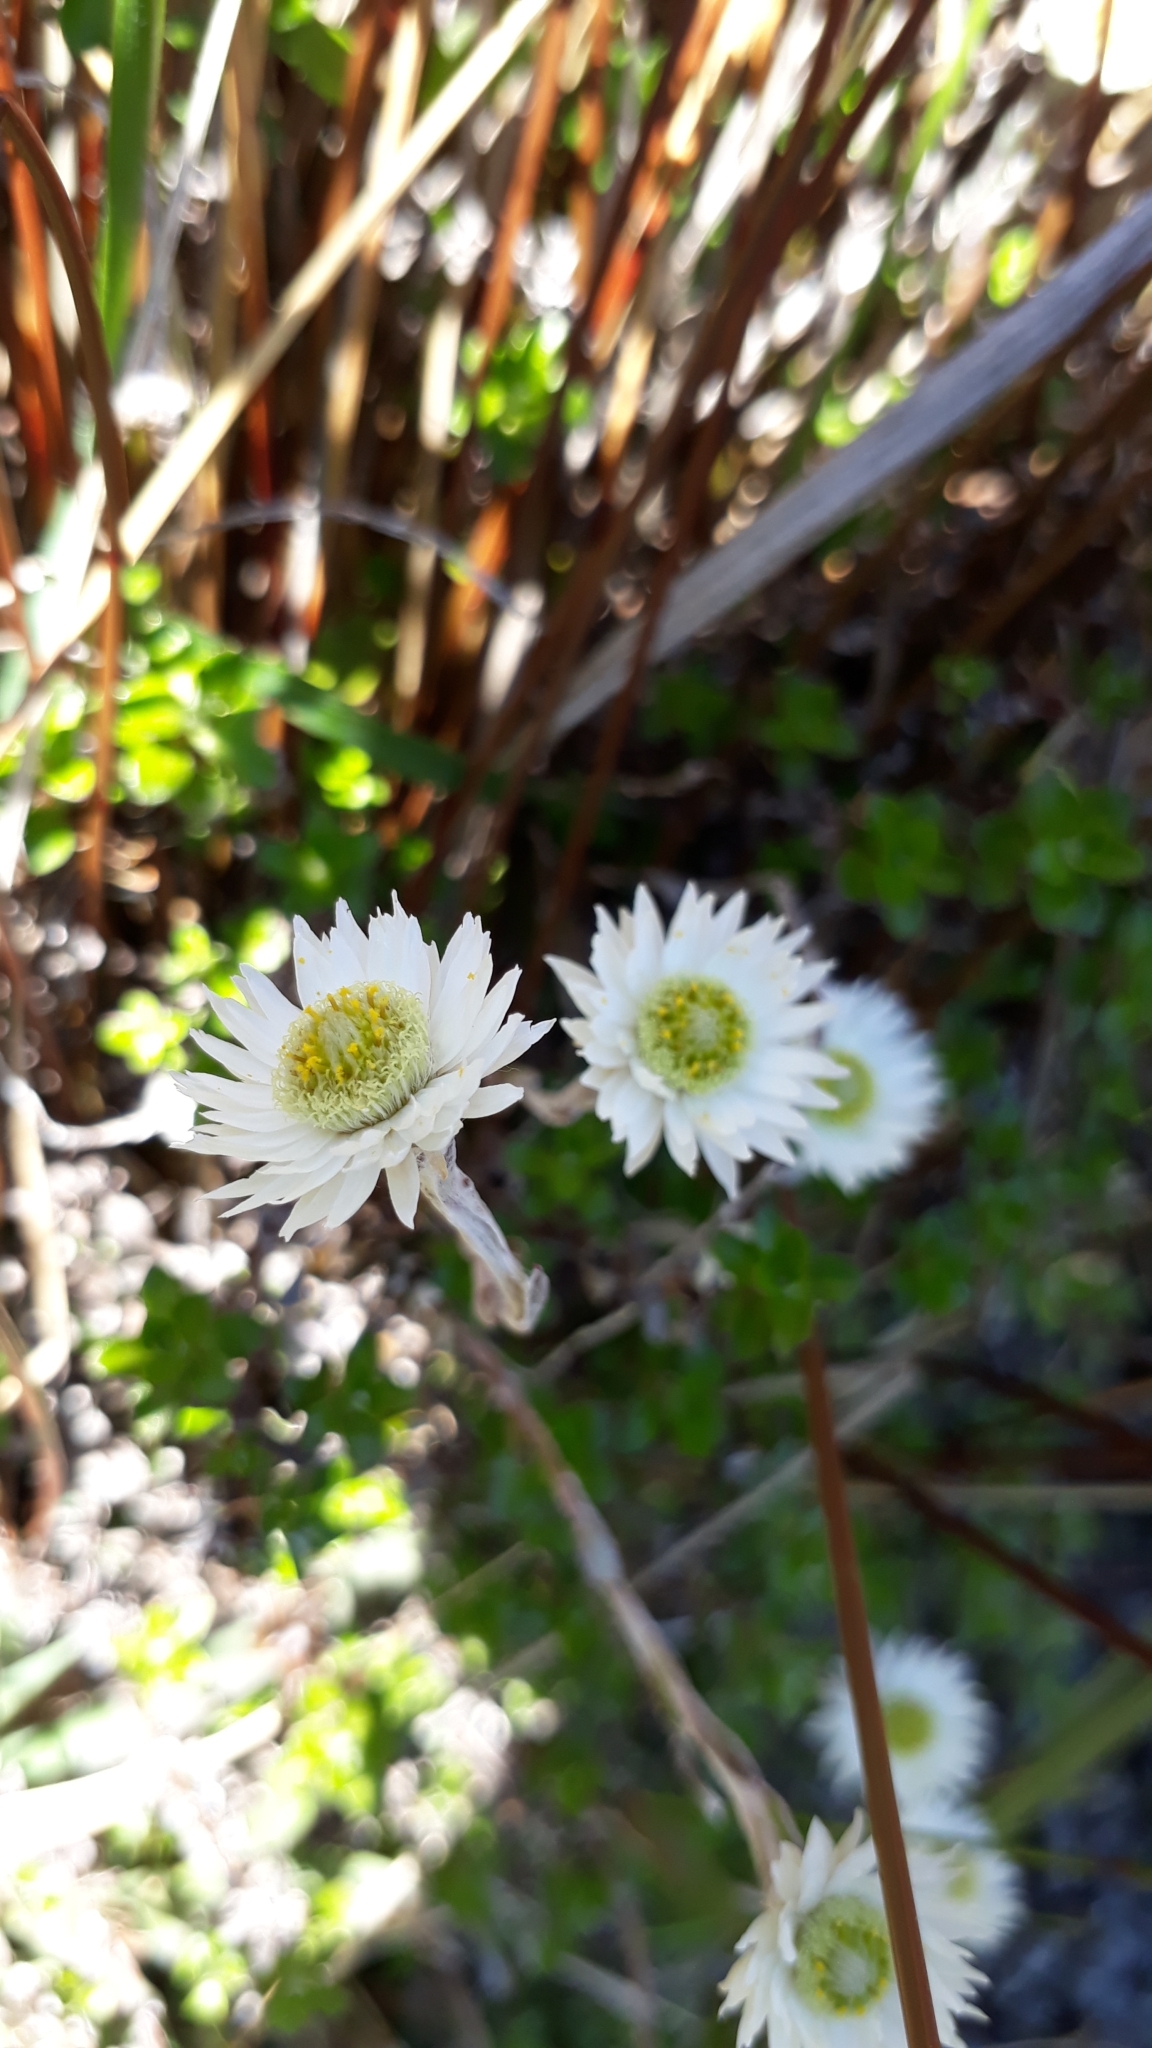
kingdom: Plantae
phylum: Tracheophyta
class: Magnoliopsida
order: Asterales
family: Asteraceae
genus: Anaphalioides
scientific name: Anaphalioides bellidioides
